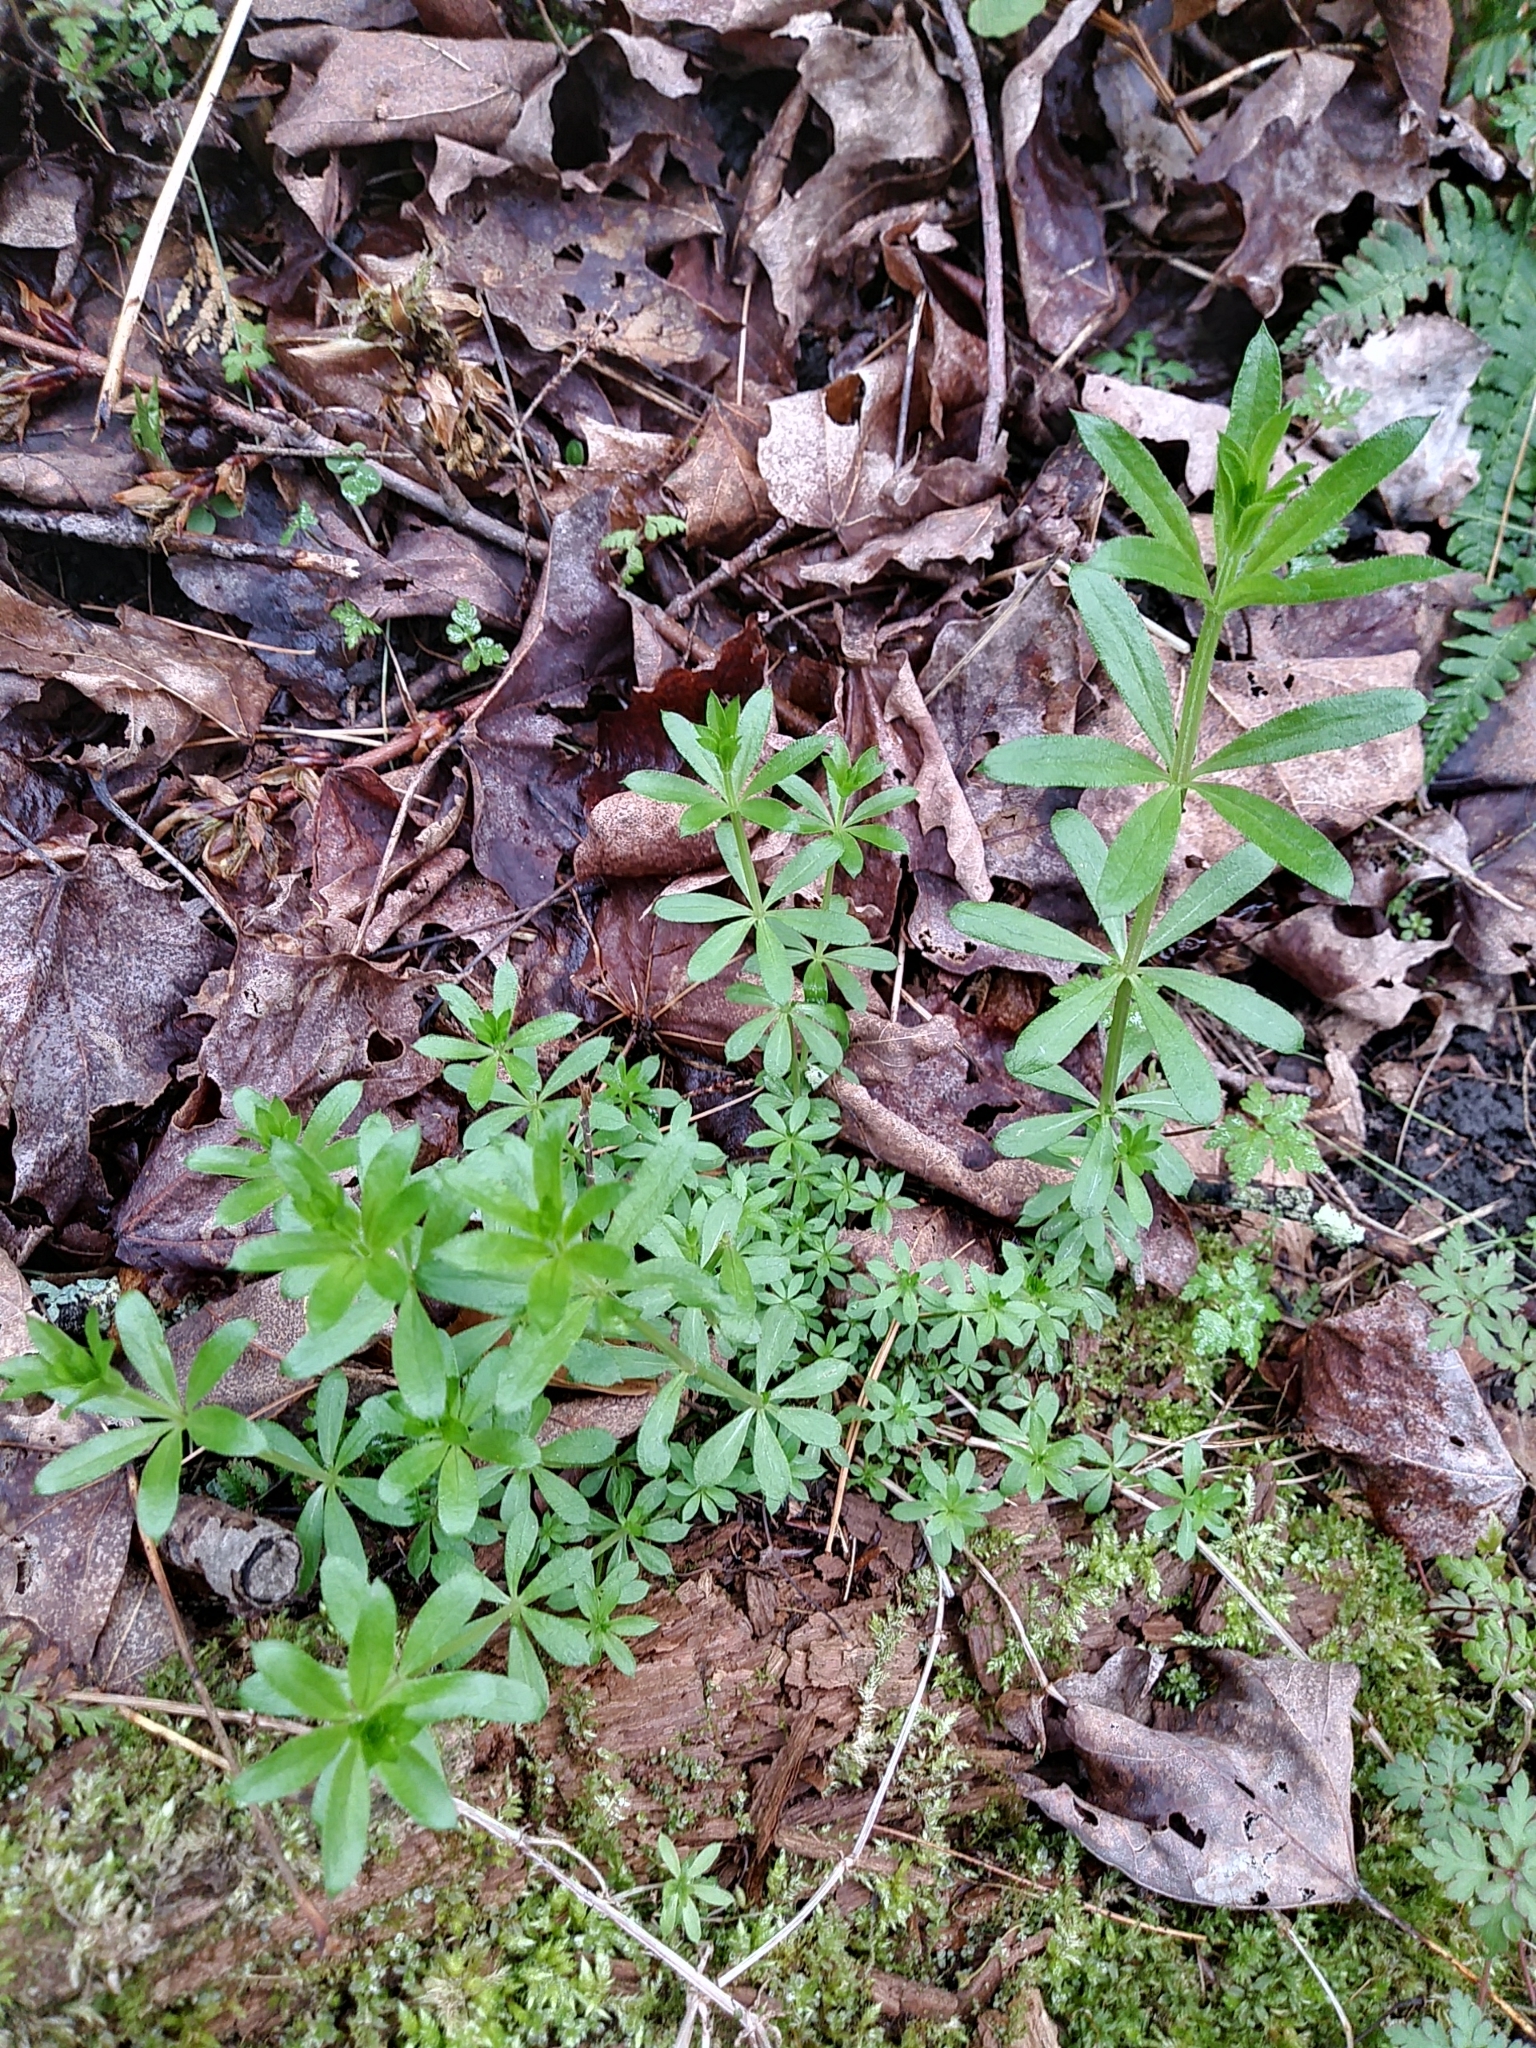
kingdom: Plantae
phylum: Tracheophyta
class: Magnoliopsida
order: Gentianales
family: Rubiaceae
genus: Galium
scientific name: Galium triflorum
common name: Fragrant bedstraw
